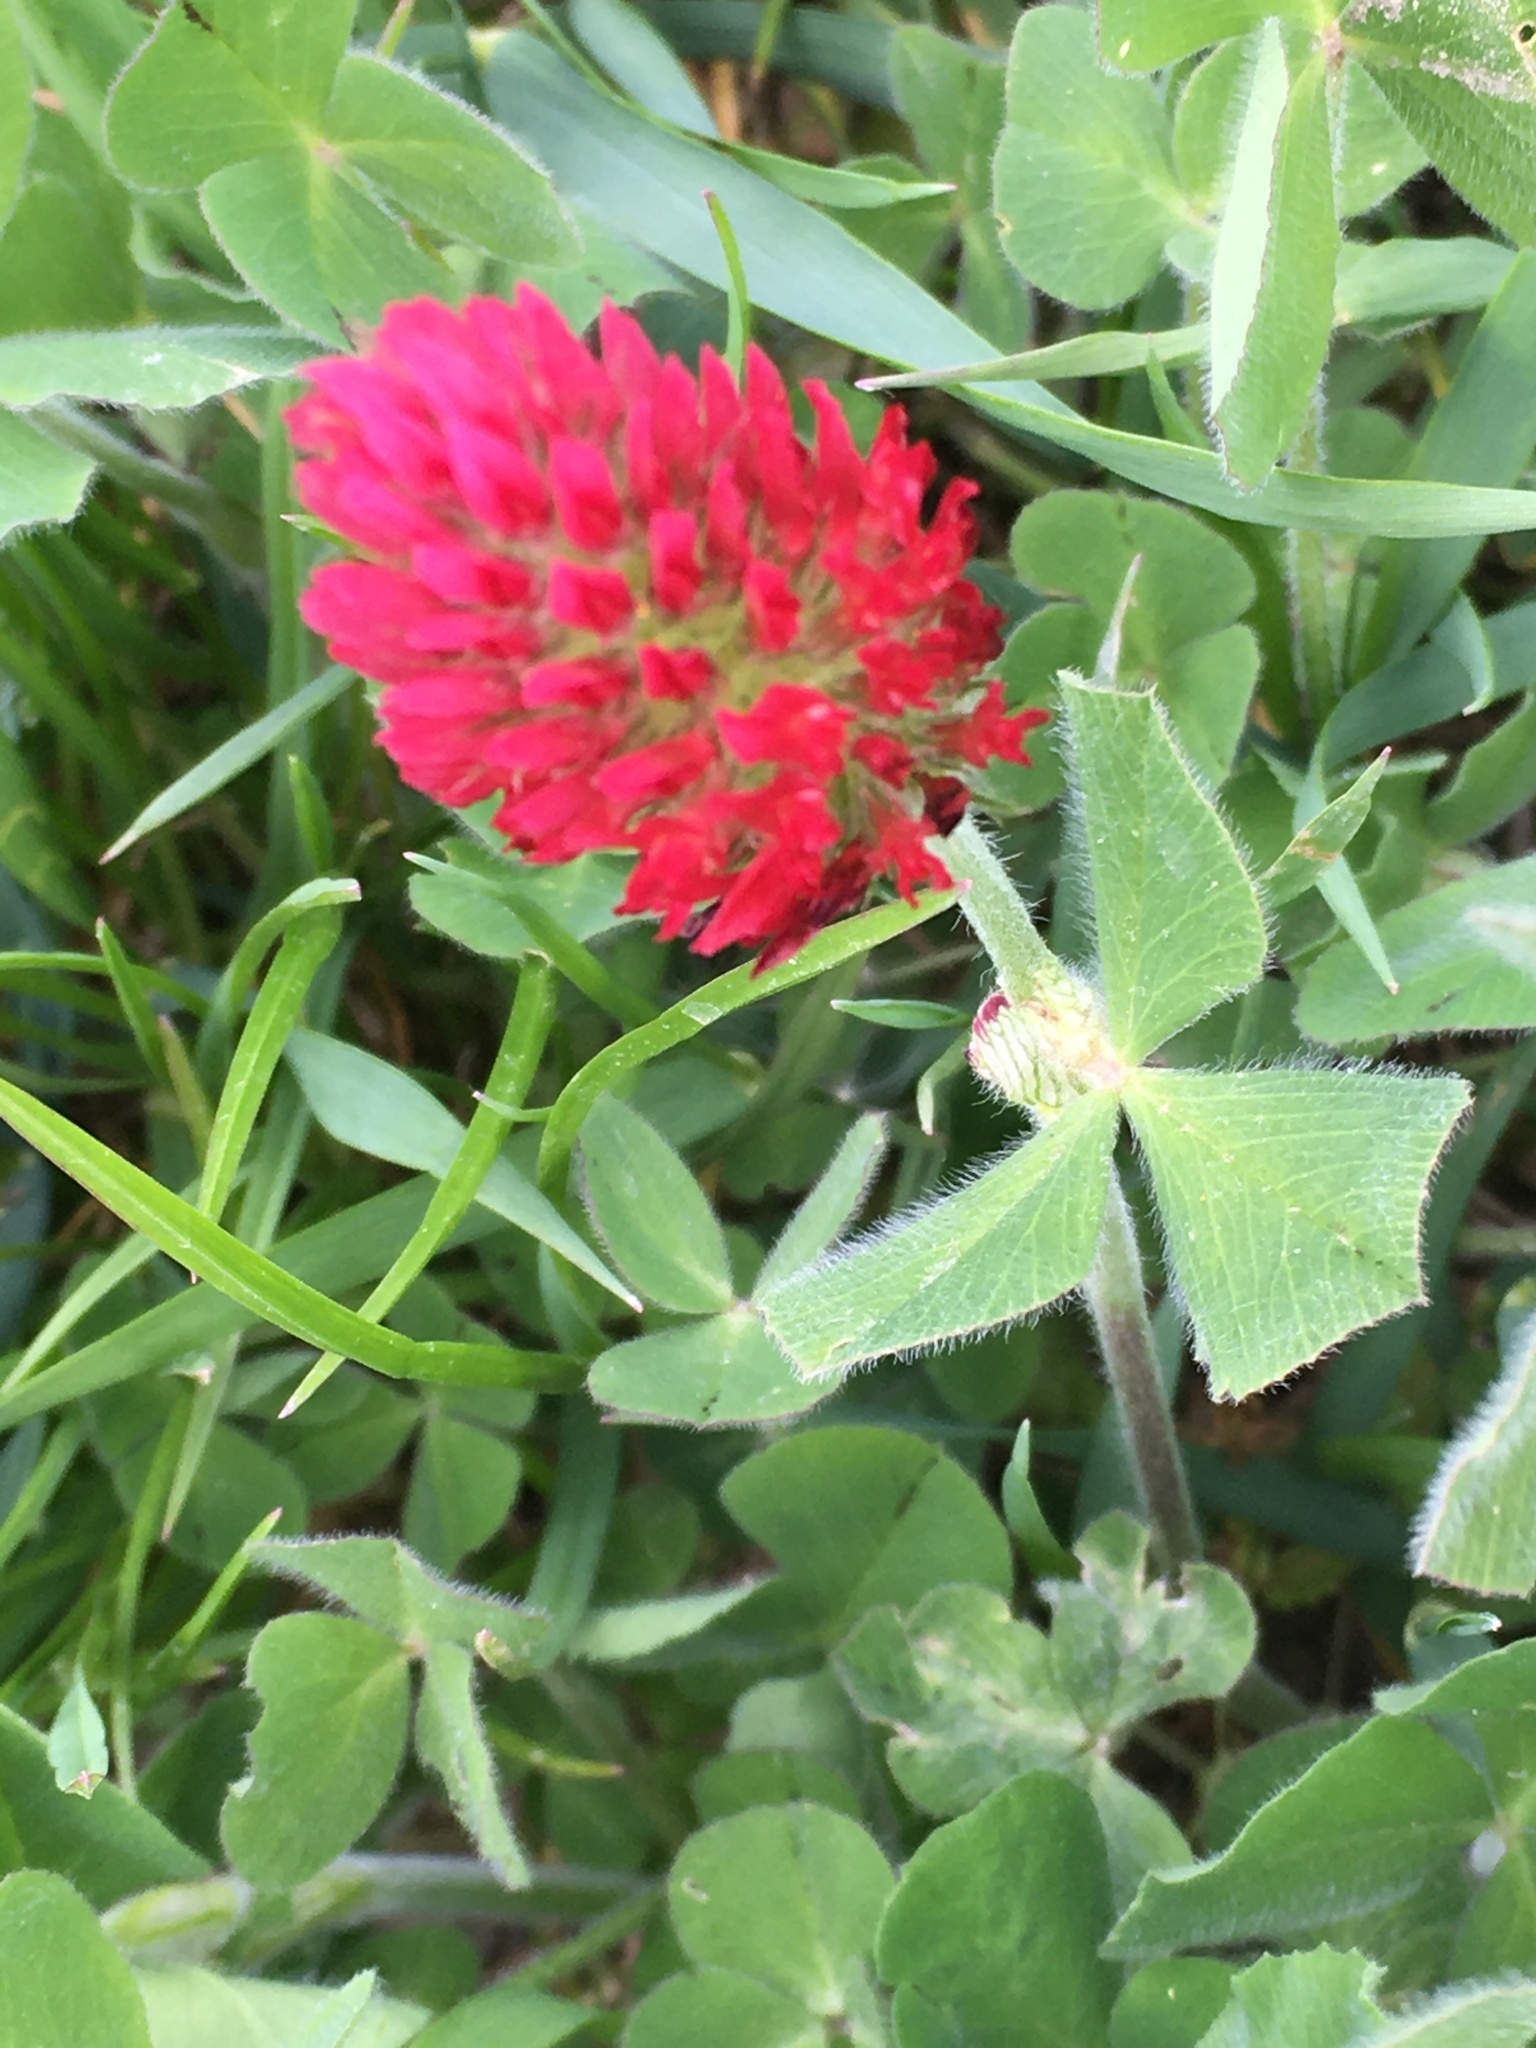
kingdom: Plantae
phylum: Tracheophyta
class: Magnoliopsida
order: Fabales
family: Fabaceae
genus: Trifolium
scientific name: Trifolium incarnatum
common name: Crimson clover
